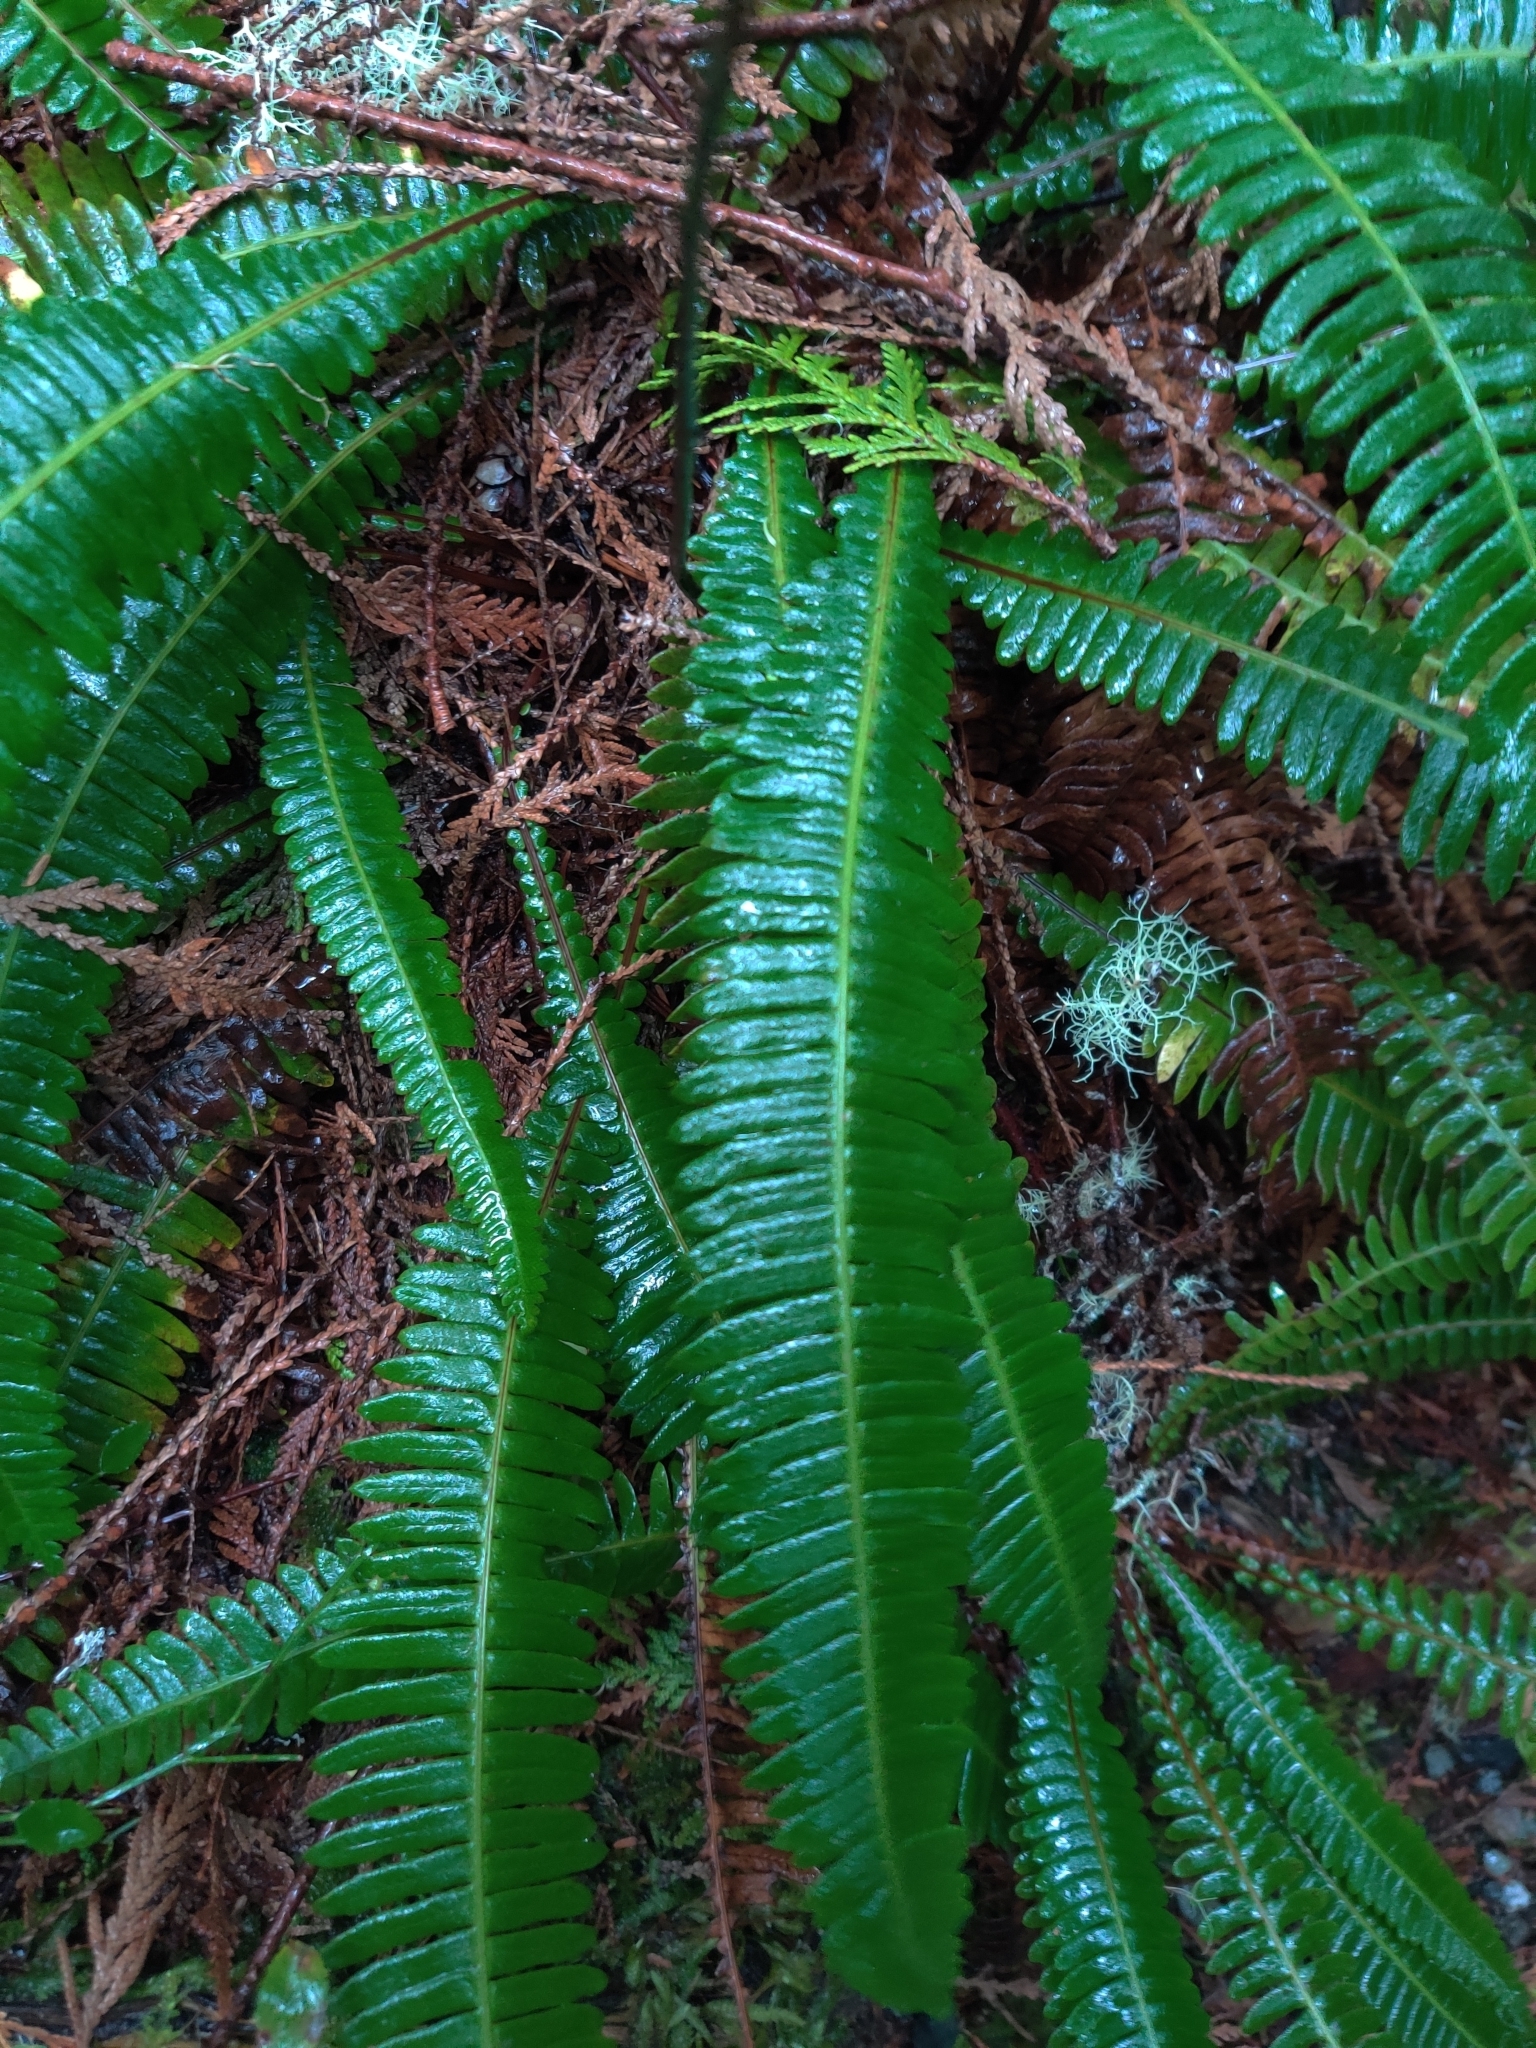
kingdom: Plantae
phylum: Tracheophyta
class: Polypodiopsida
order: Polypodiales
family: Blechnaceae
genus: Struthiopteris
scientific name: Struthiopteris spicant
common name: Deer fern
